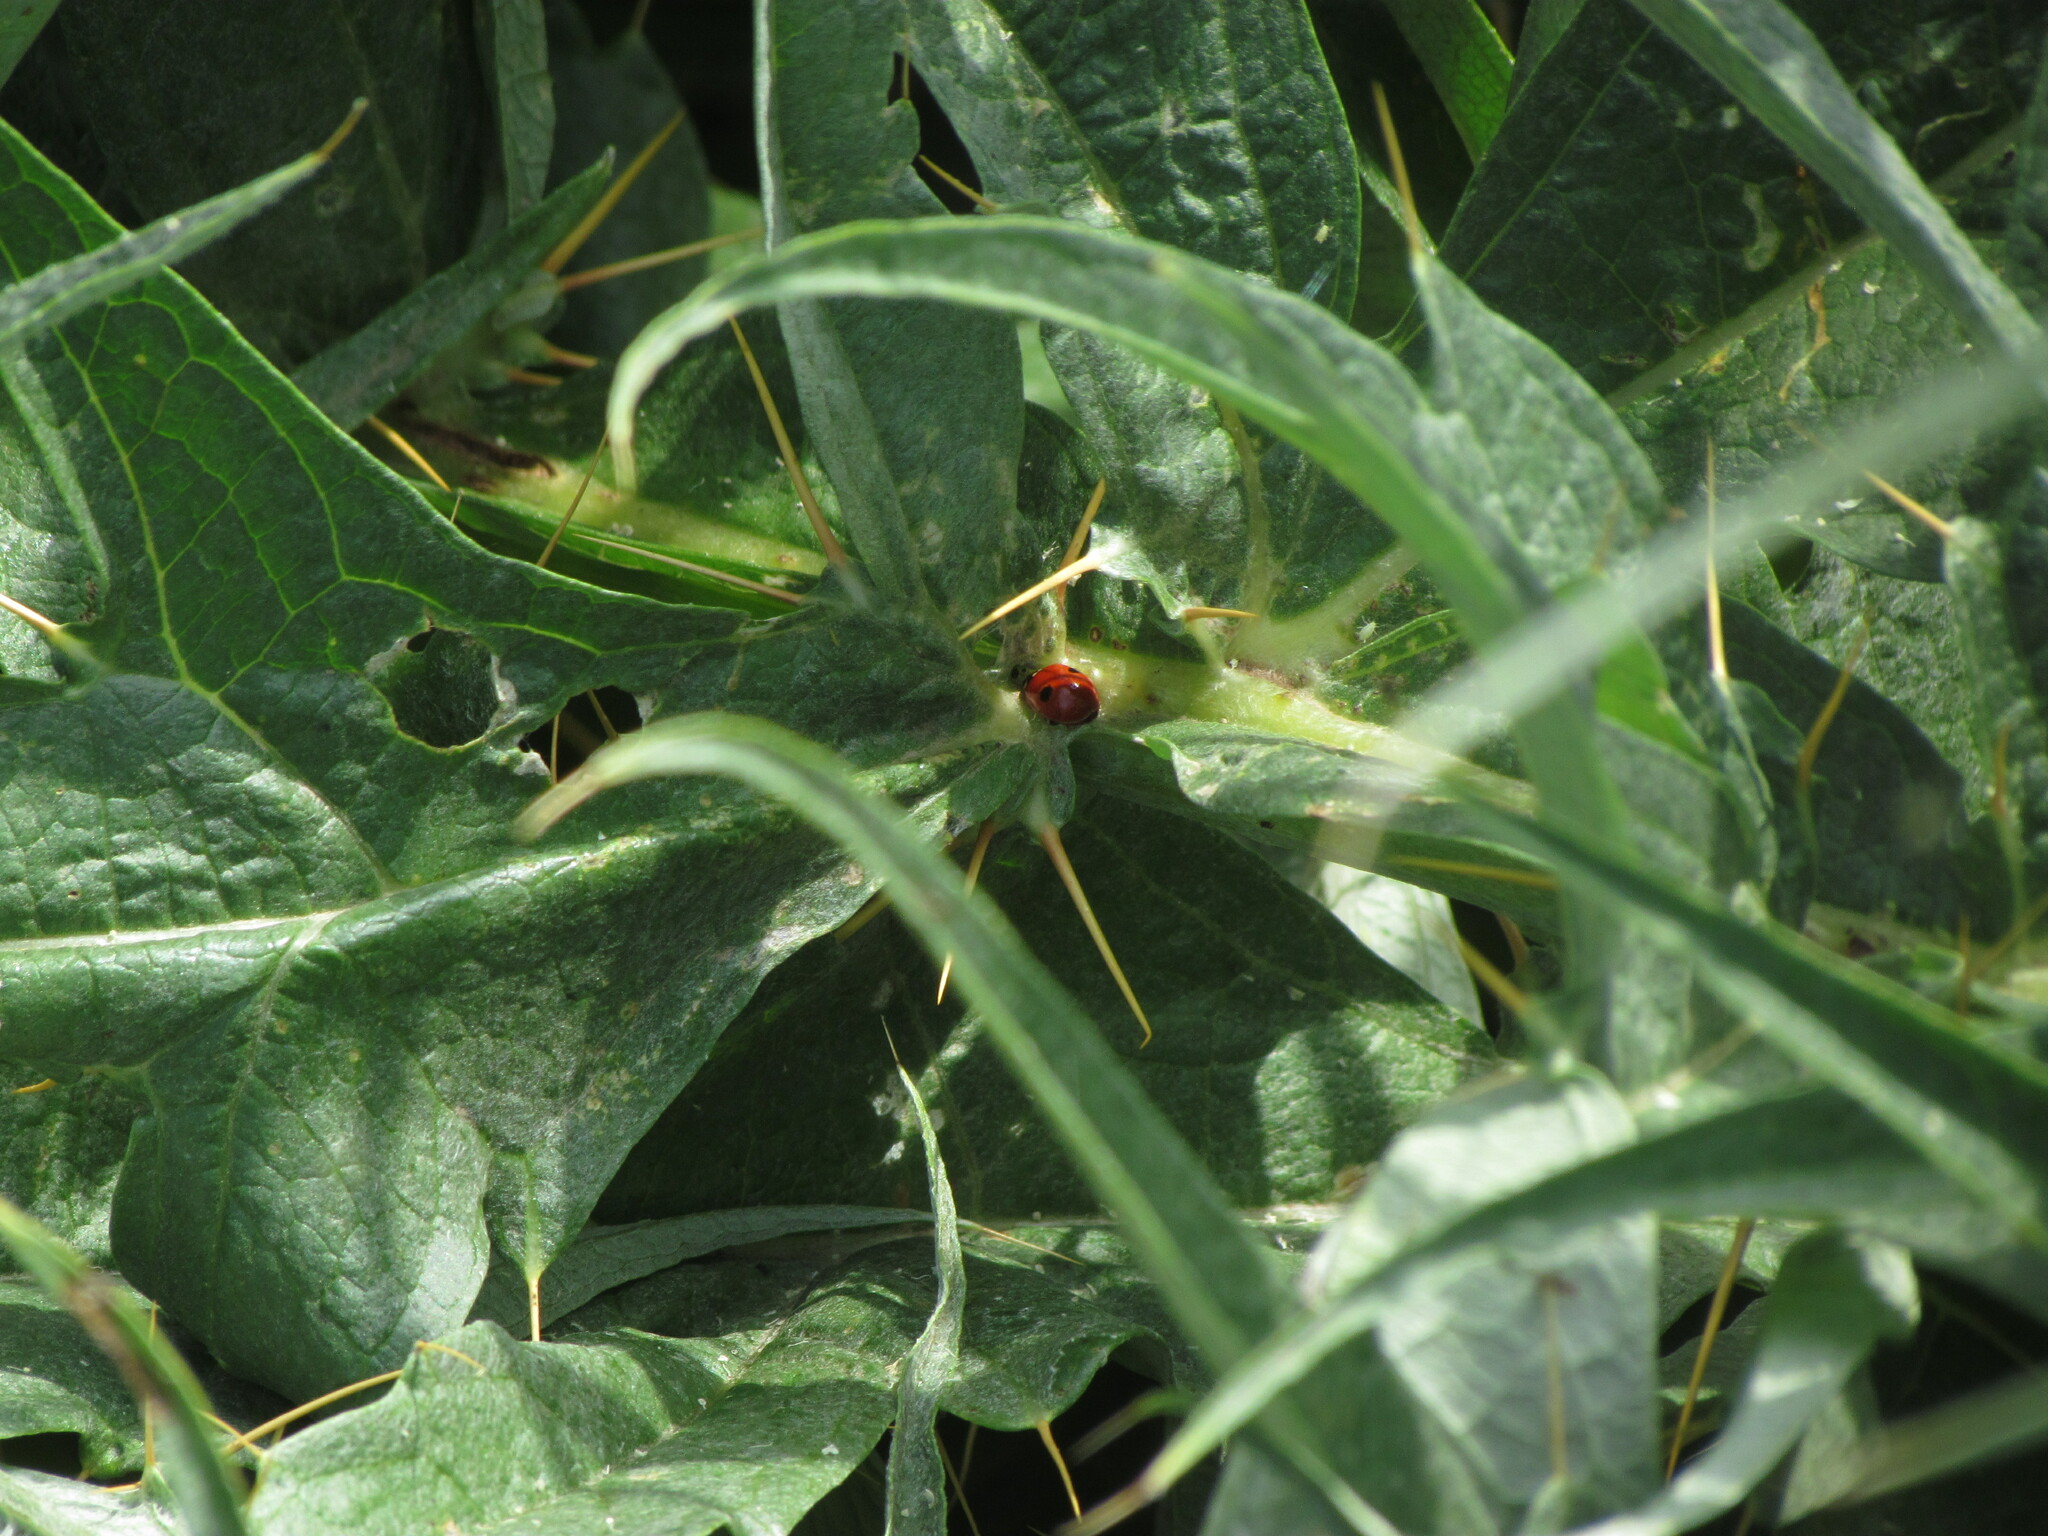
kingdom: Animalia
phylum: Arthropoda
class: Insecta
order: Coleoptera
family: Coccinellidae
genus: Adalia
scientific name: Adalia bipunctata
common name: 2-spot ladybird
